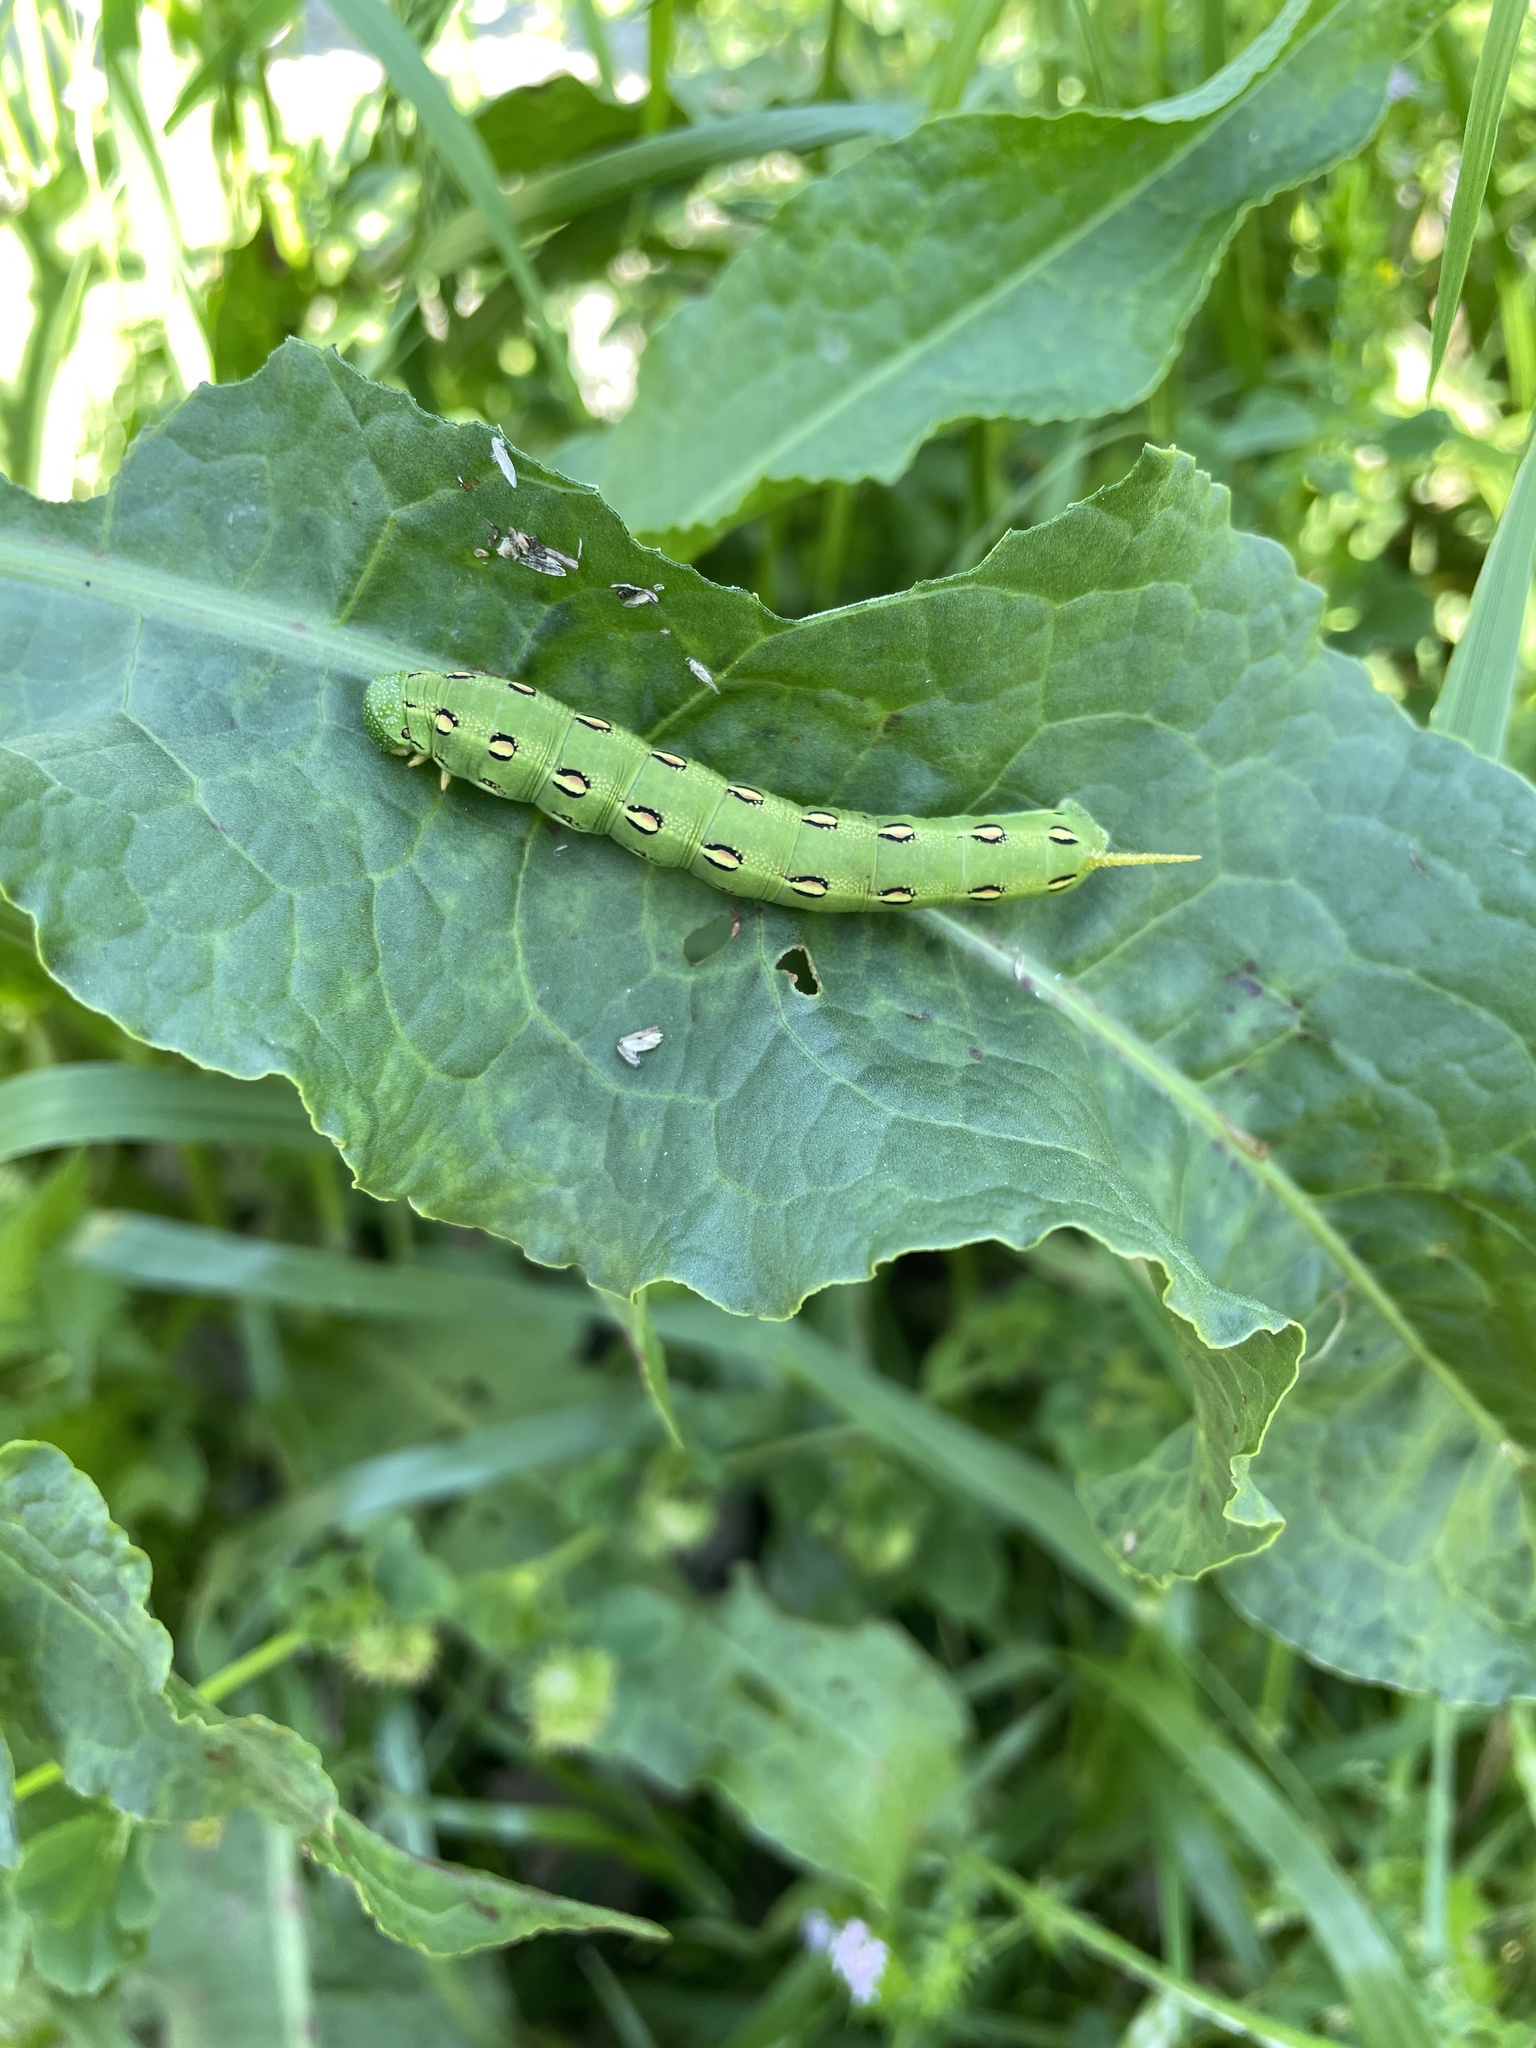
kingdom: Animalia
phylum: Arthropoda
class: Insecta
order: Lepidoptera
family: Sphingidae
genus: Hyles
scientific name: Hyles lineata
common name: White-lined sphinx
